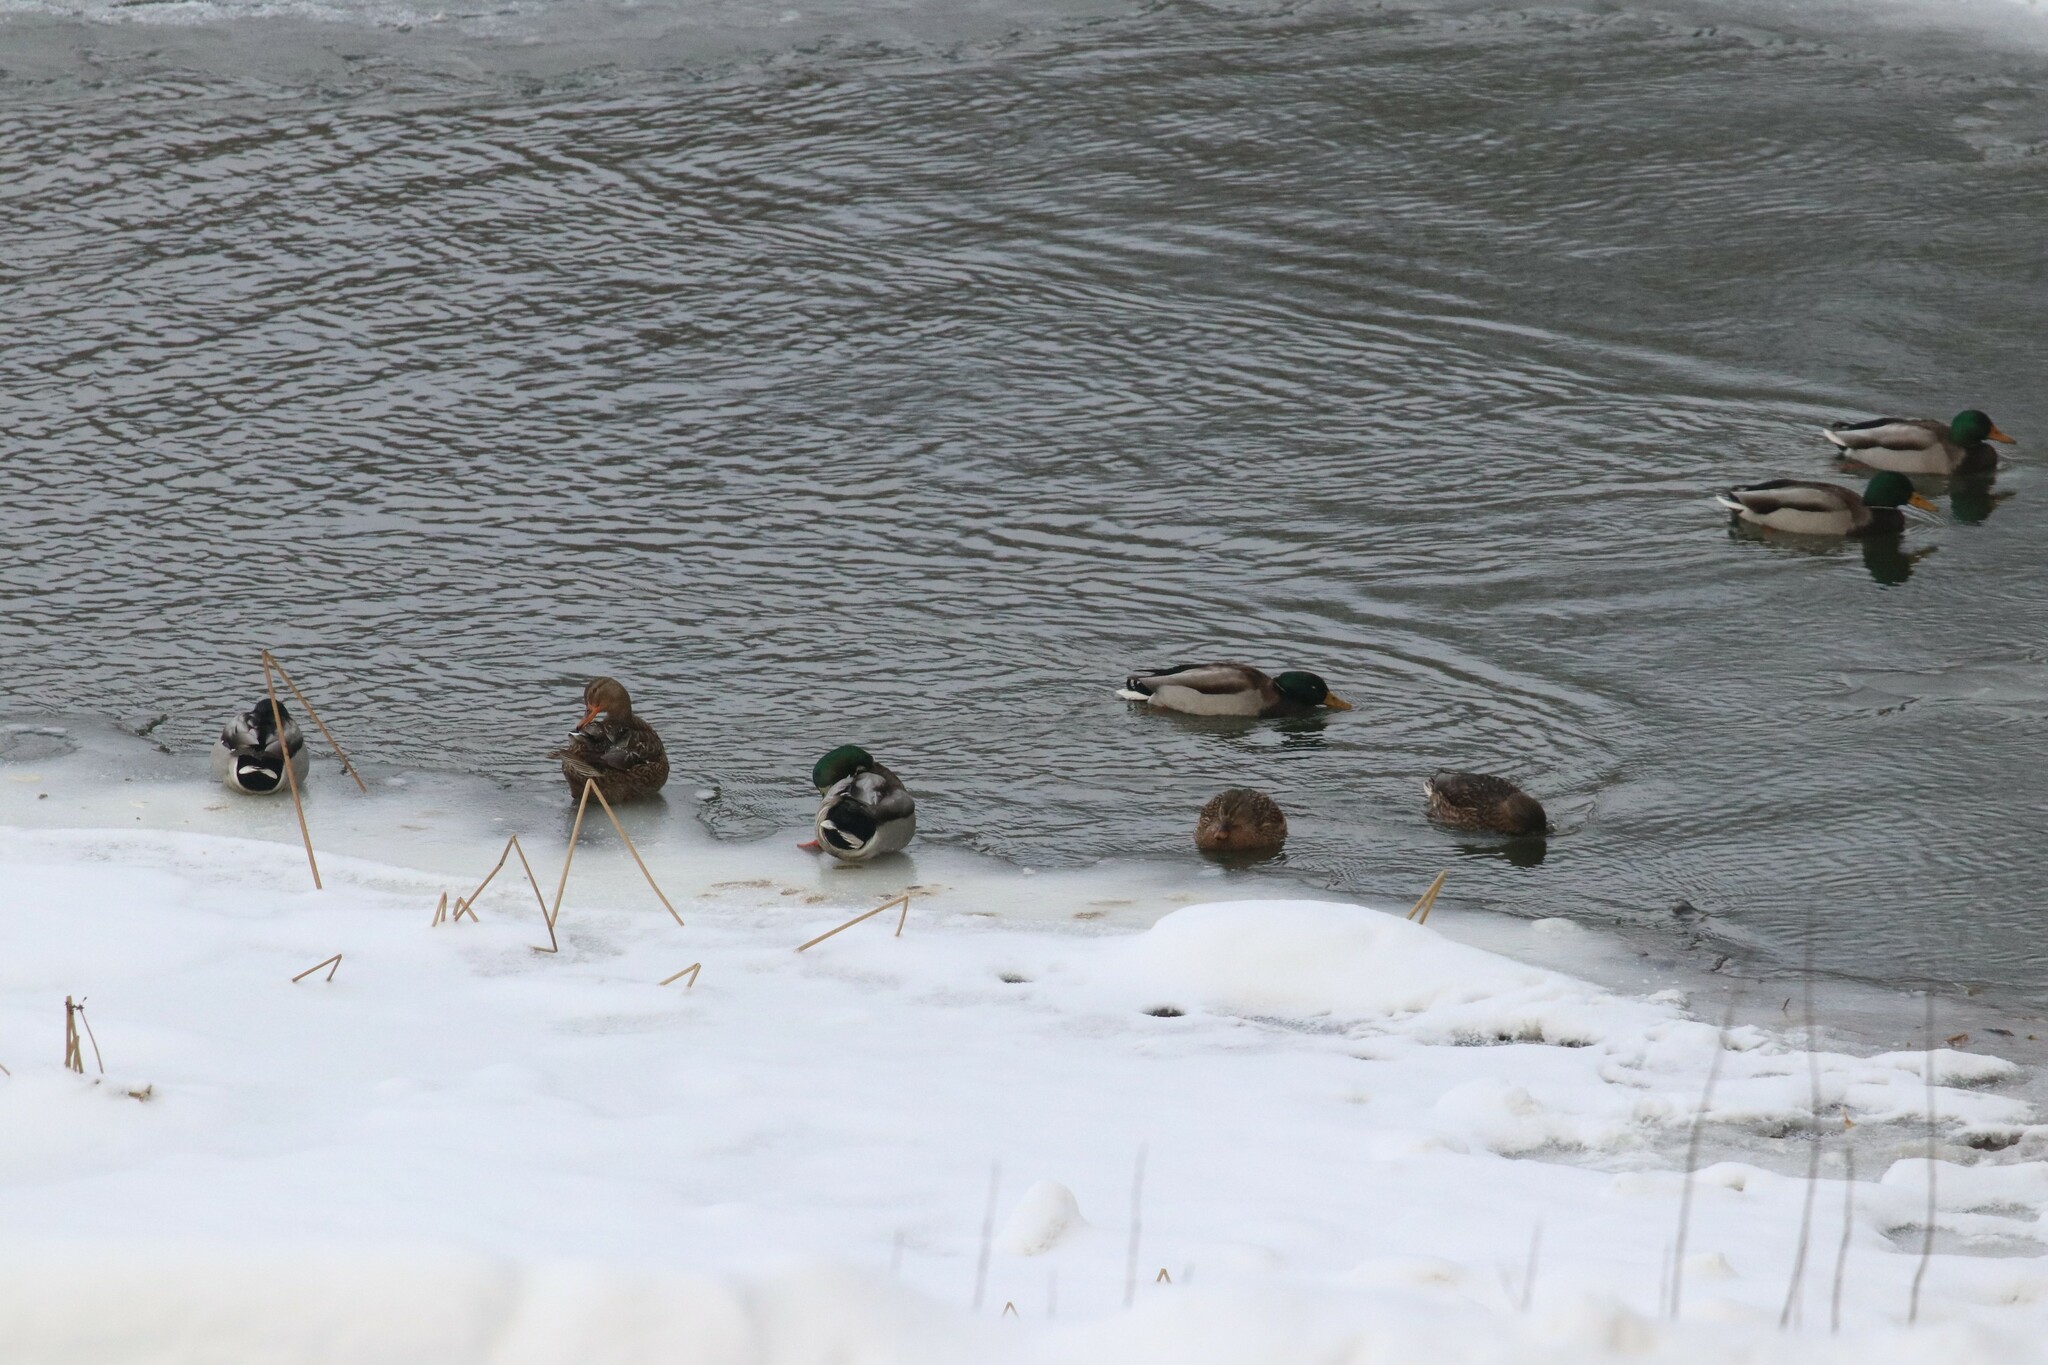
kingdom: Animalia
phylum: Chordata
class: Aves
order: Anseriformes
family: Anatidae
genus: Anas
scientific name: Anas platyrhynchos
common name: Mallard
